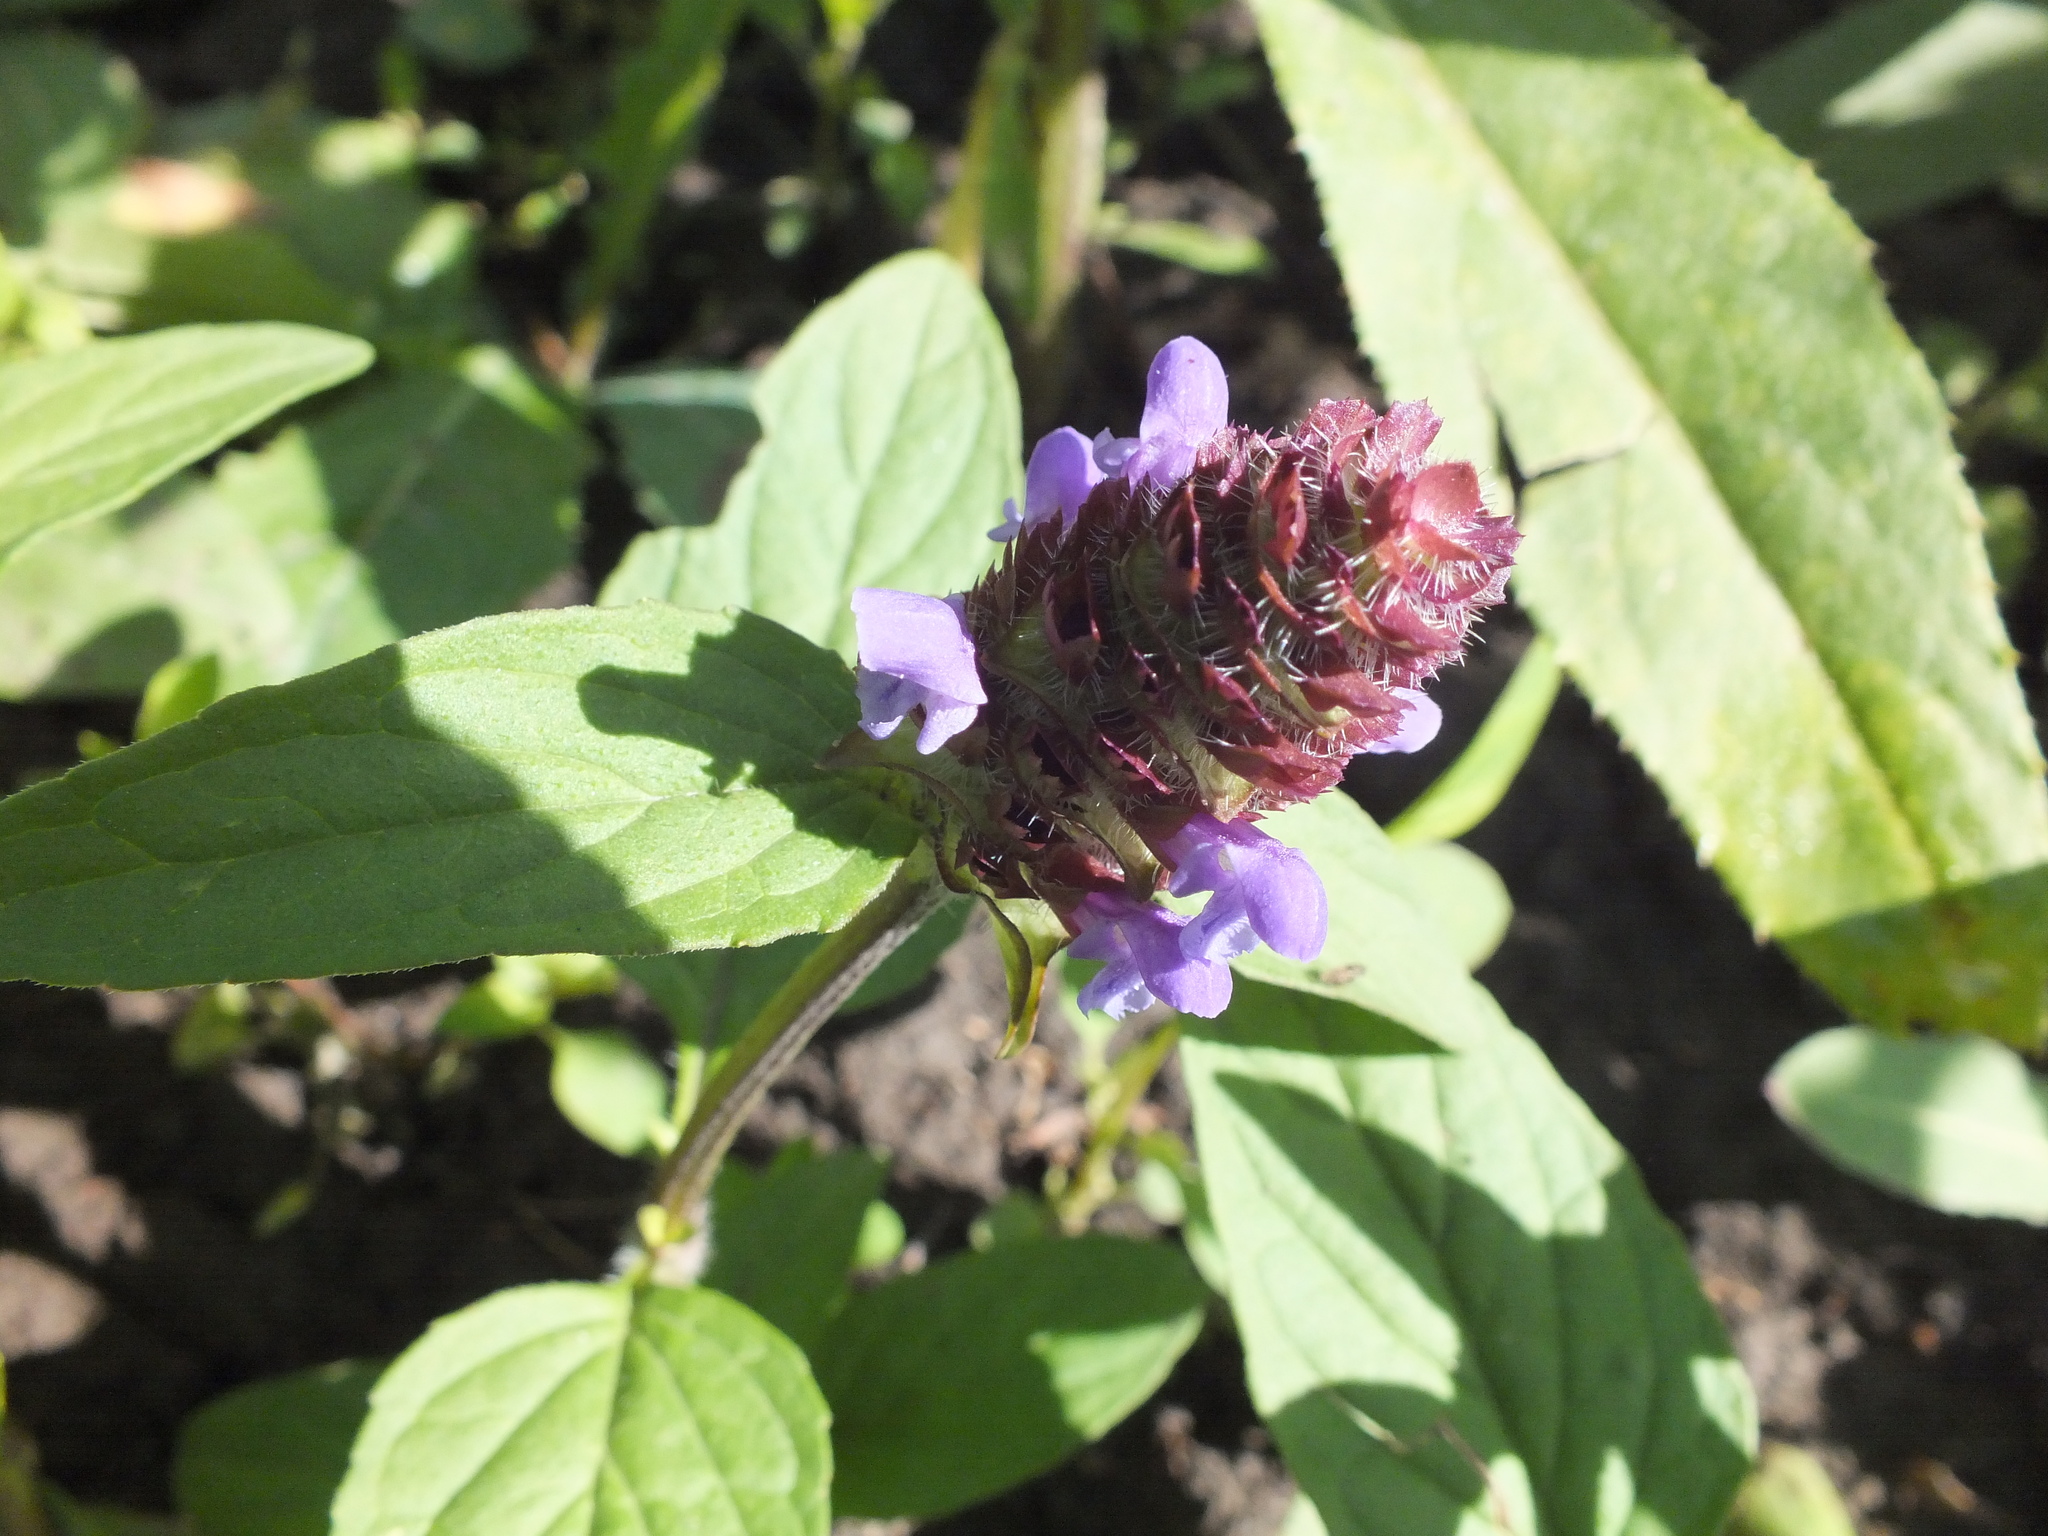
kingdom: Plantae
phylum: Tracheophyta
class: Magnoliopsida
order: Lamiales
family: Lamiaceae
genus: Prunella
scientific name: Prunella vulgaris
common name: Heal-all
